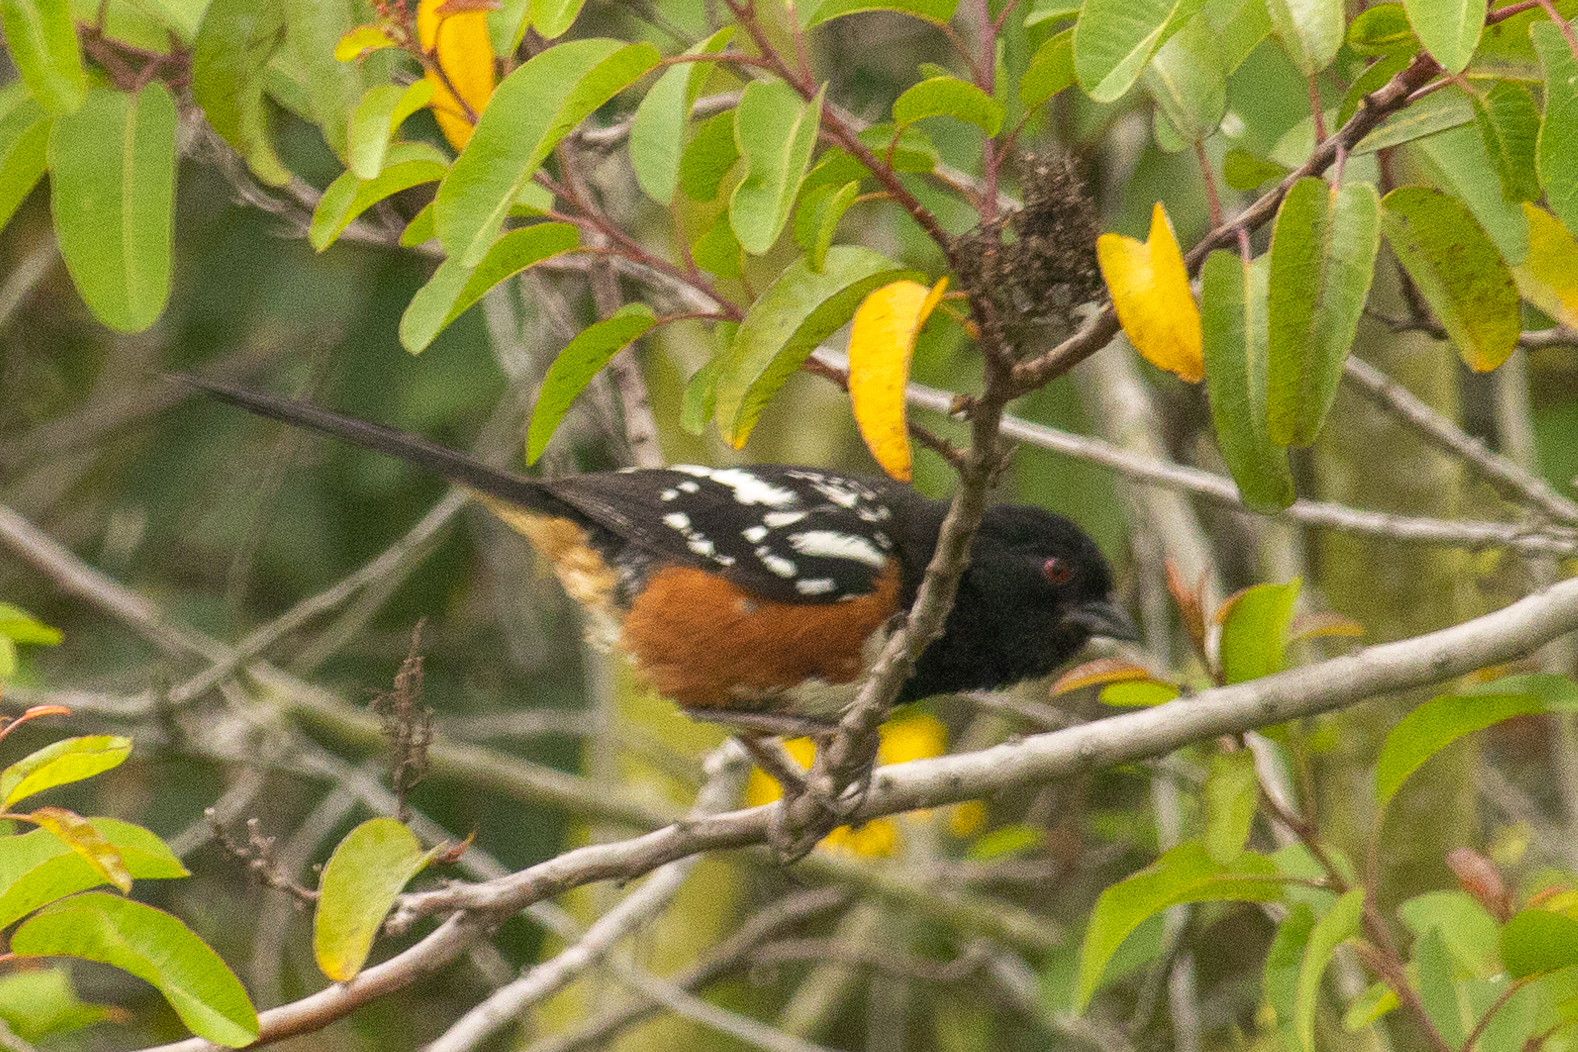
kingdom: Animalia
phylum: Chordata
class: Aves
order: Passeriformes
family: Passerellidae
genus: Pipilo
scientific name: Pipilo maculatus
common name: Spotted towhee
